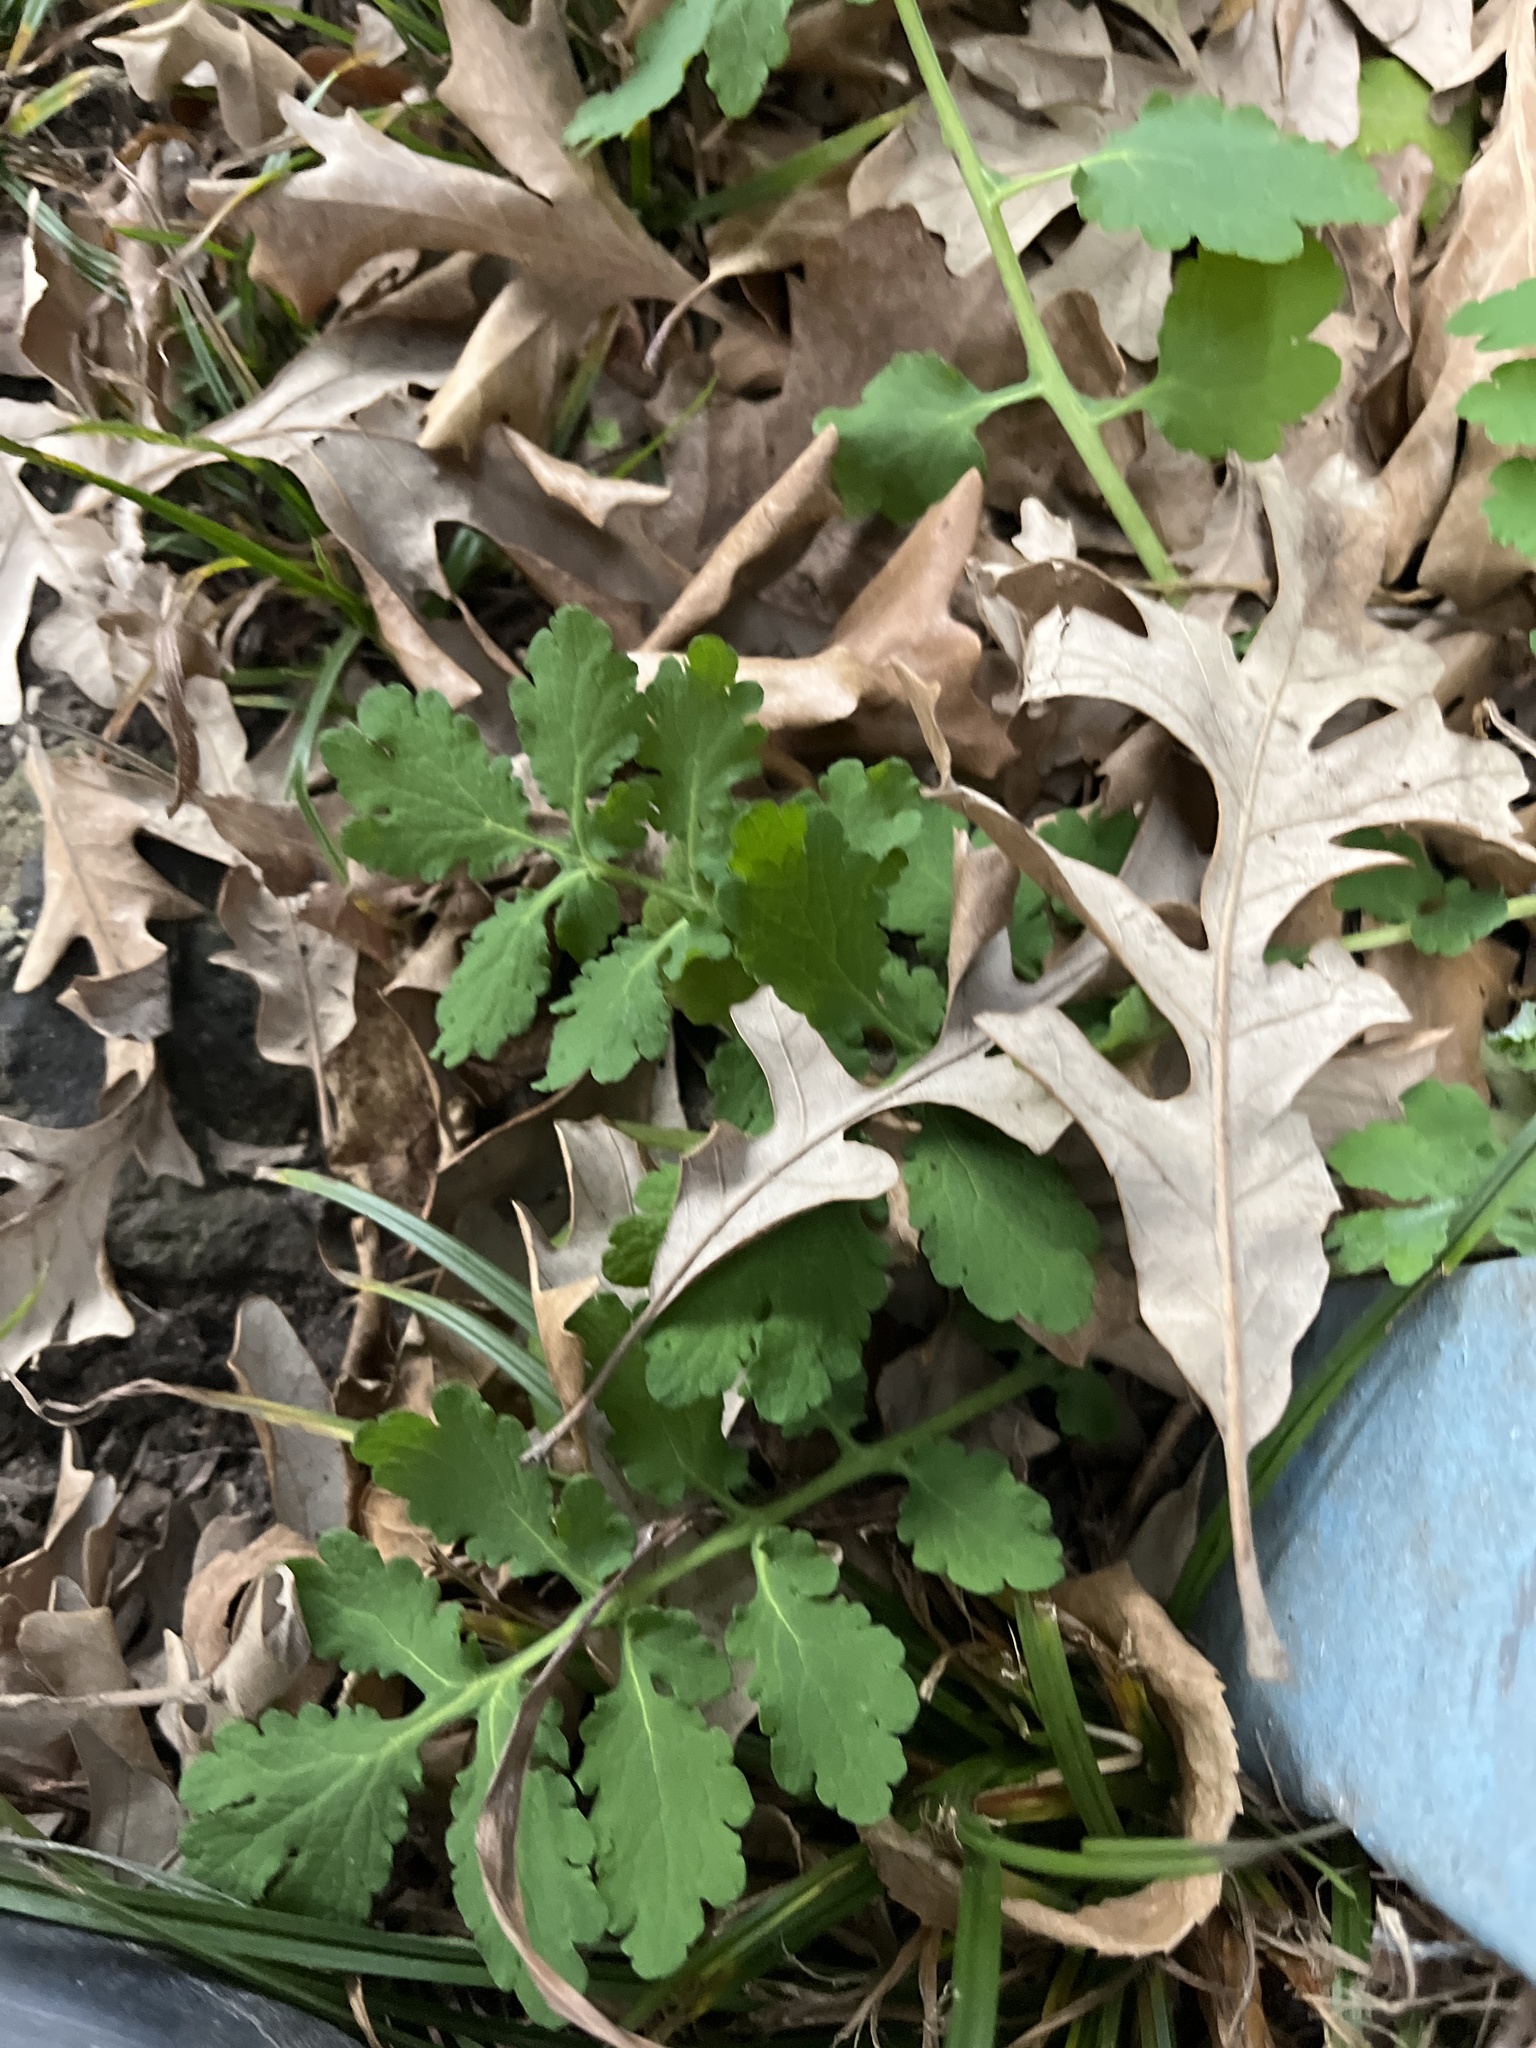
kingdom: Plantae
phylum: Tracheophyta
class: Magnoliopsida
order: Ranunculales
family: Papaveraceae
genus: Chelidonium
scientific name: Chelidonium majus
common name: Greater celandine
